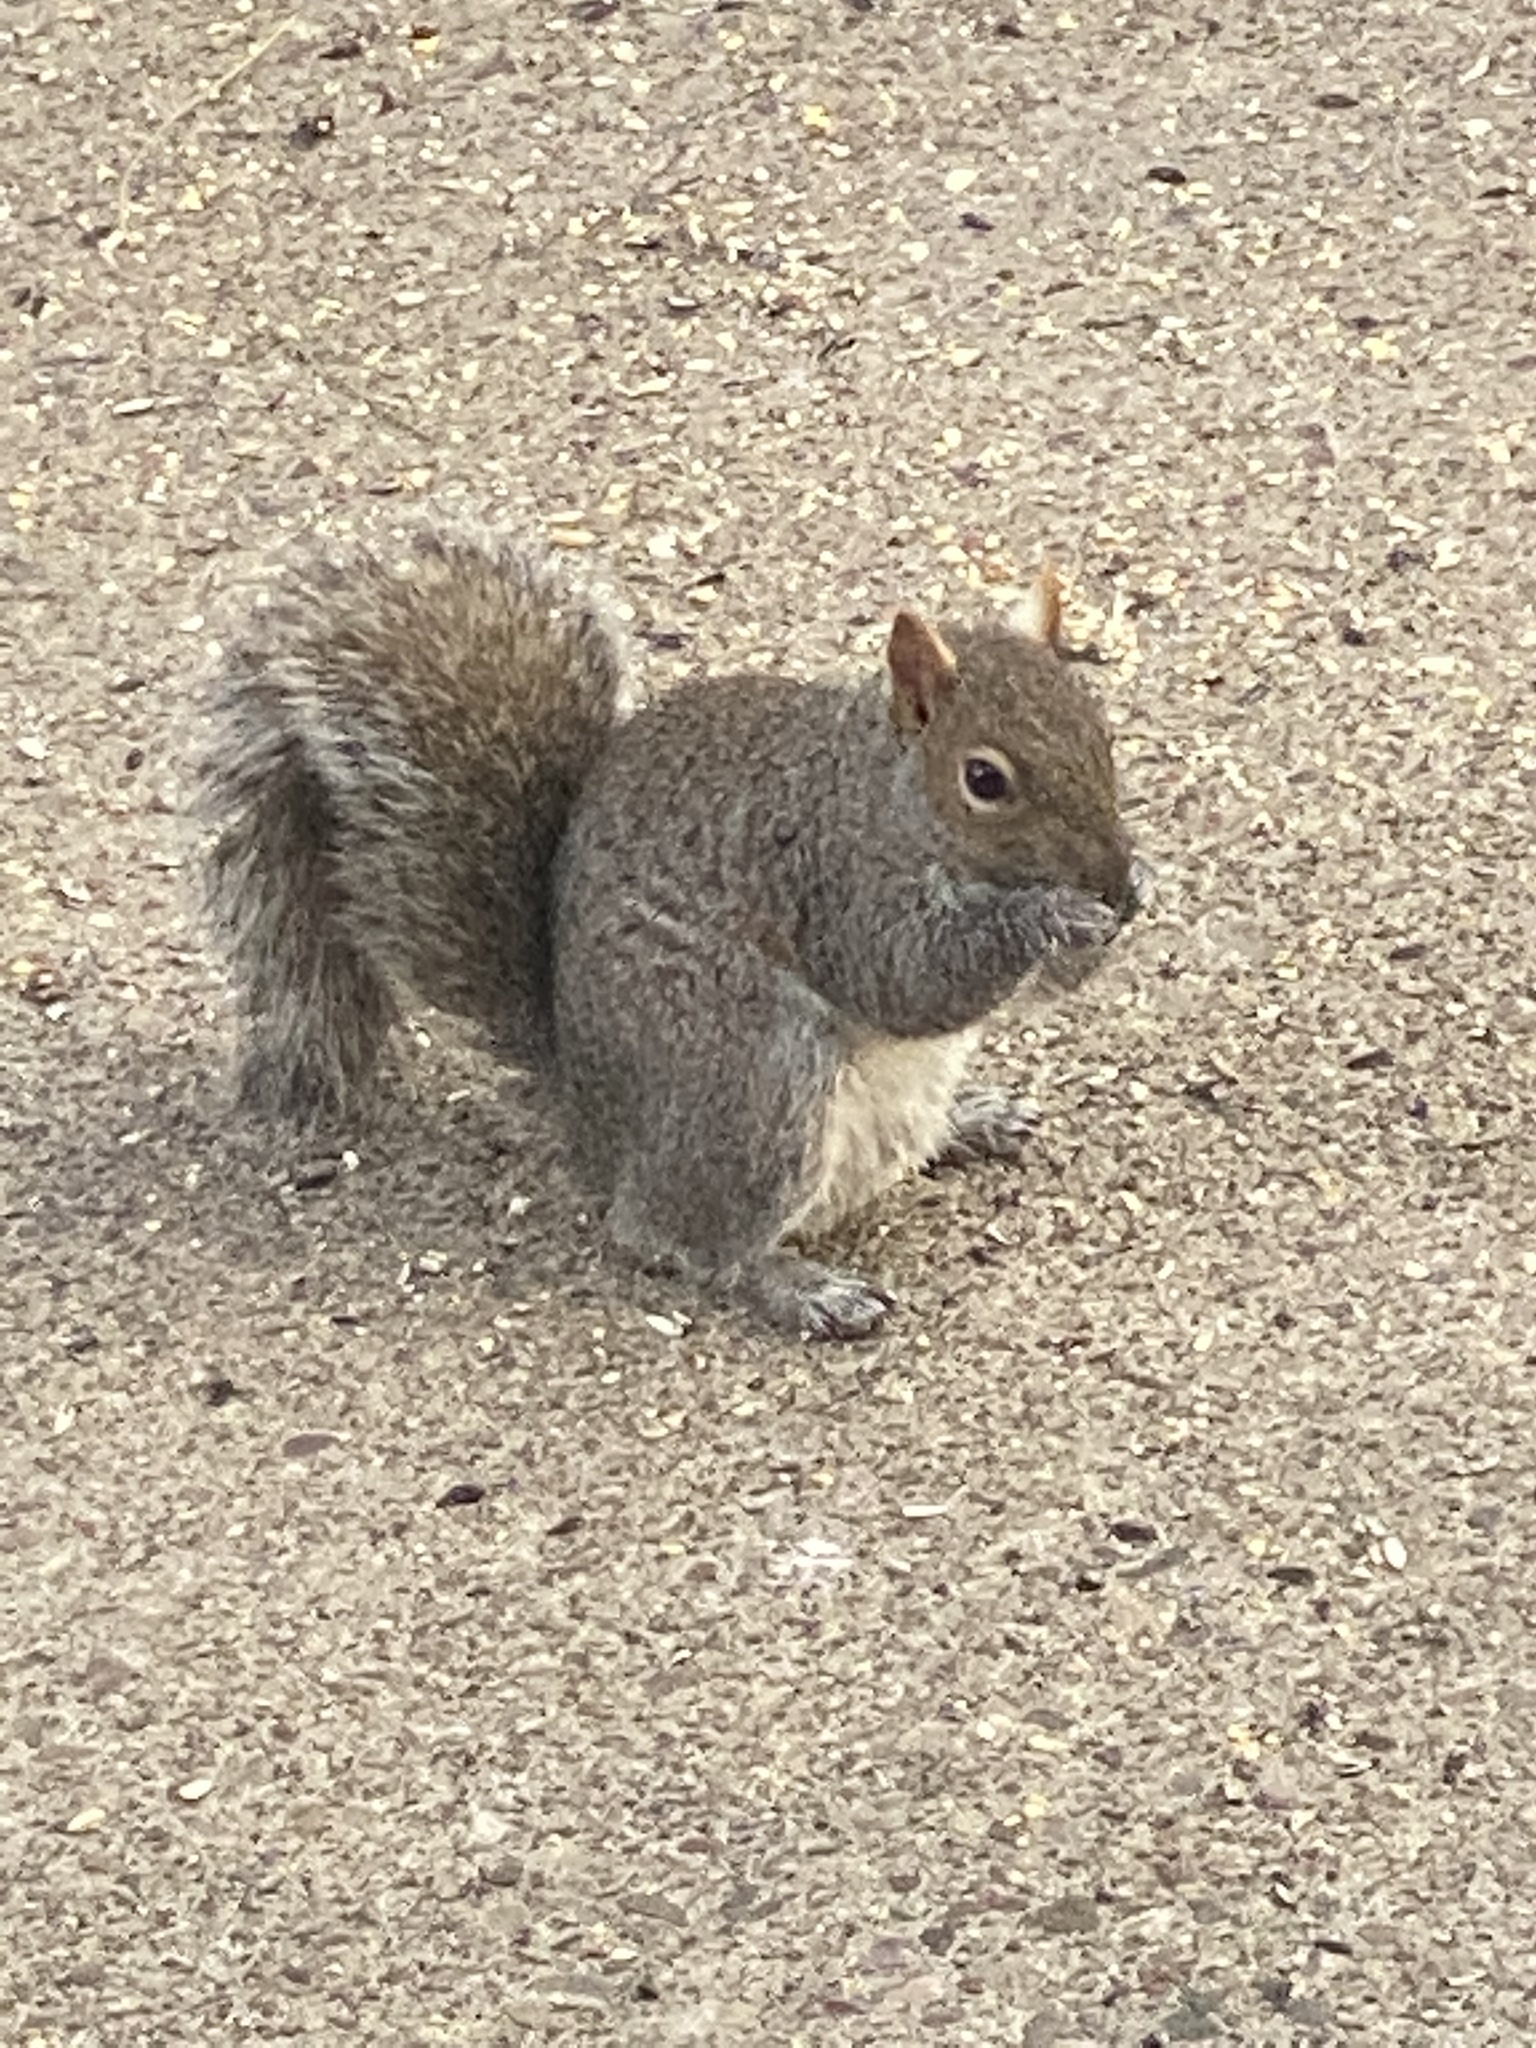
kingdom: Animalia
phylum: Chordata
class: Mammalia
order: Rodentia
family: Sciuridae
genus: Sciurus
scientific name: Sciurus carolinensis
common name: Eastern gray squirrel
